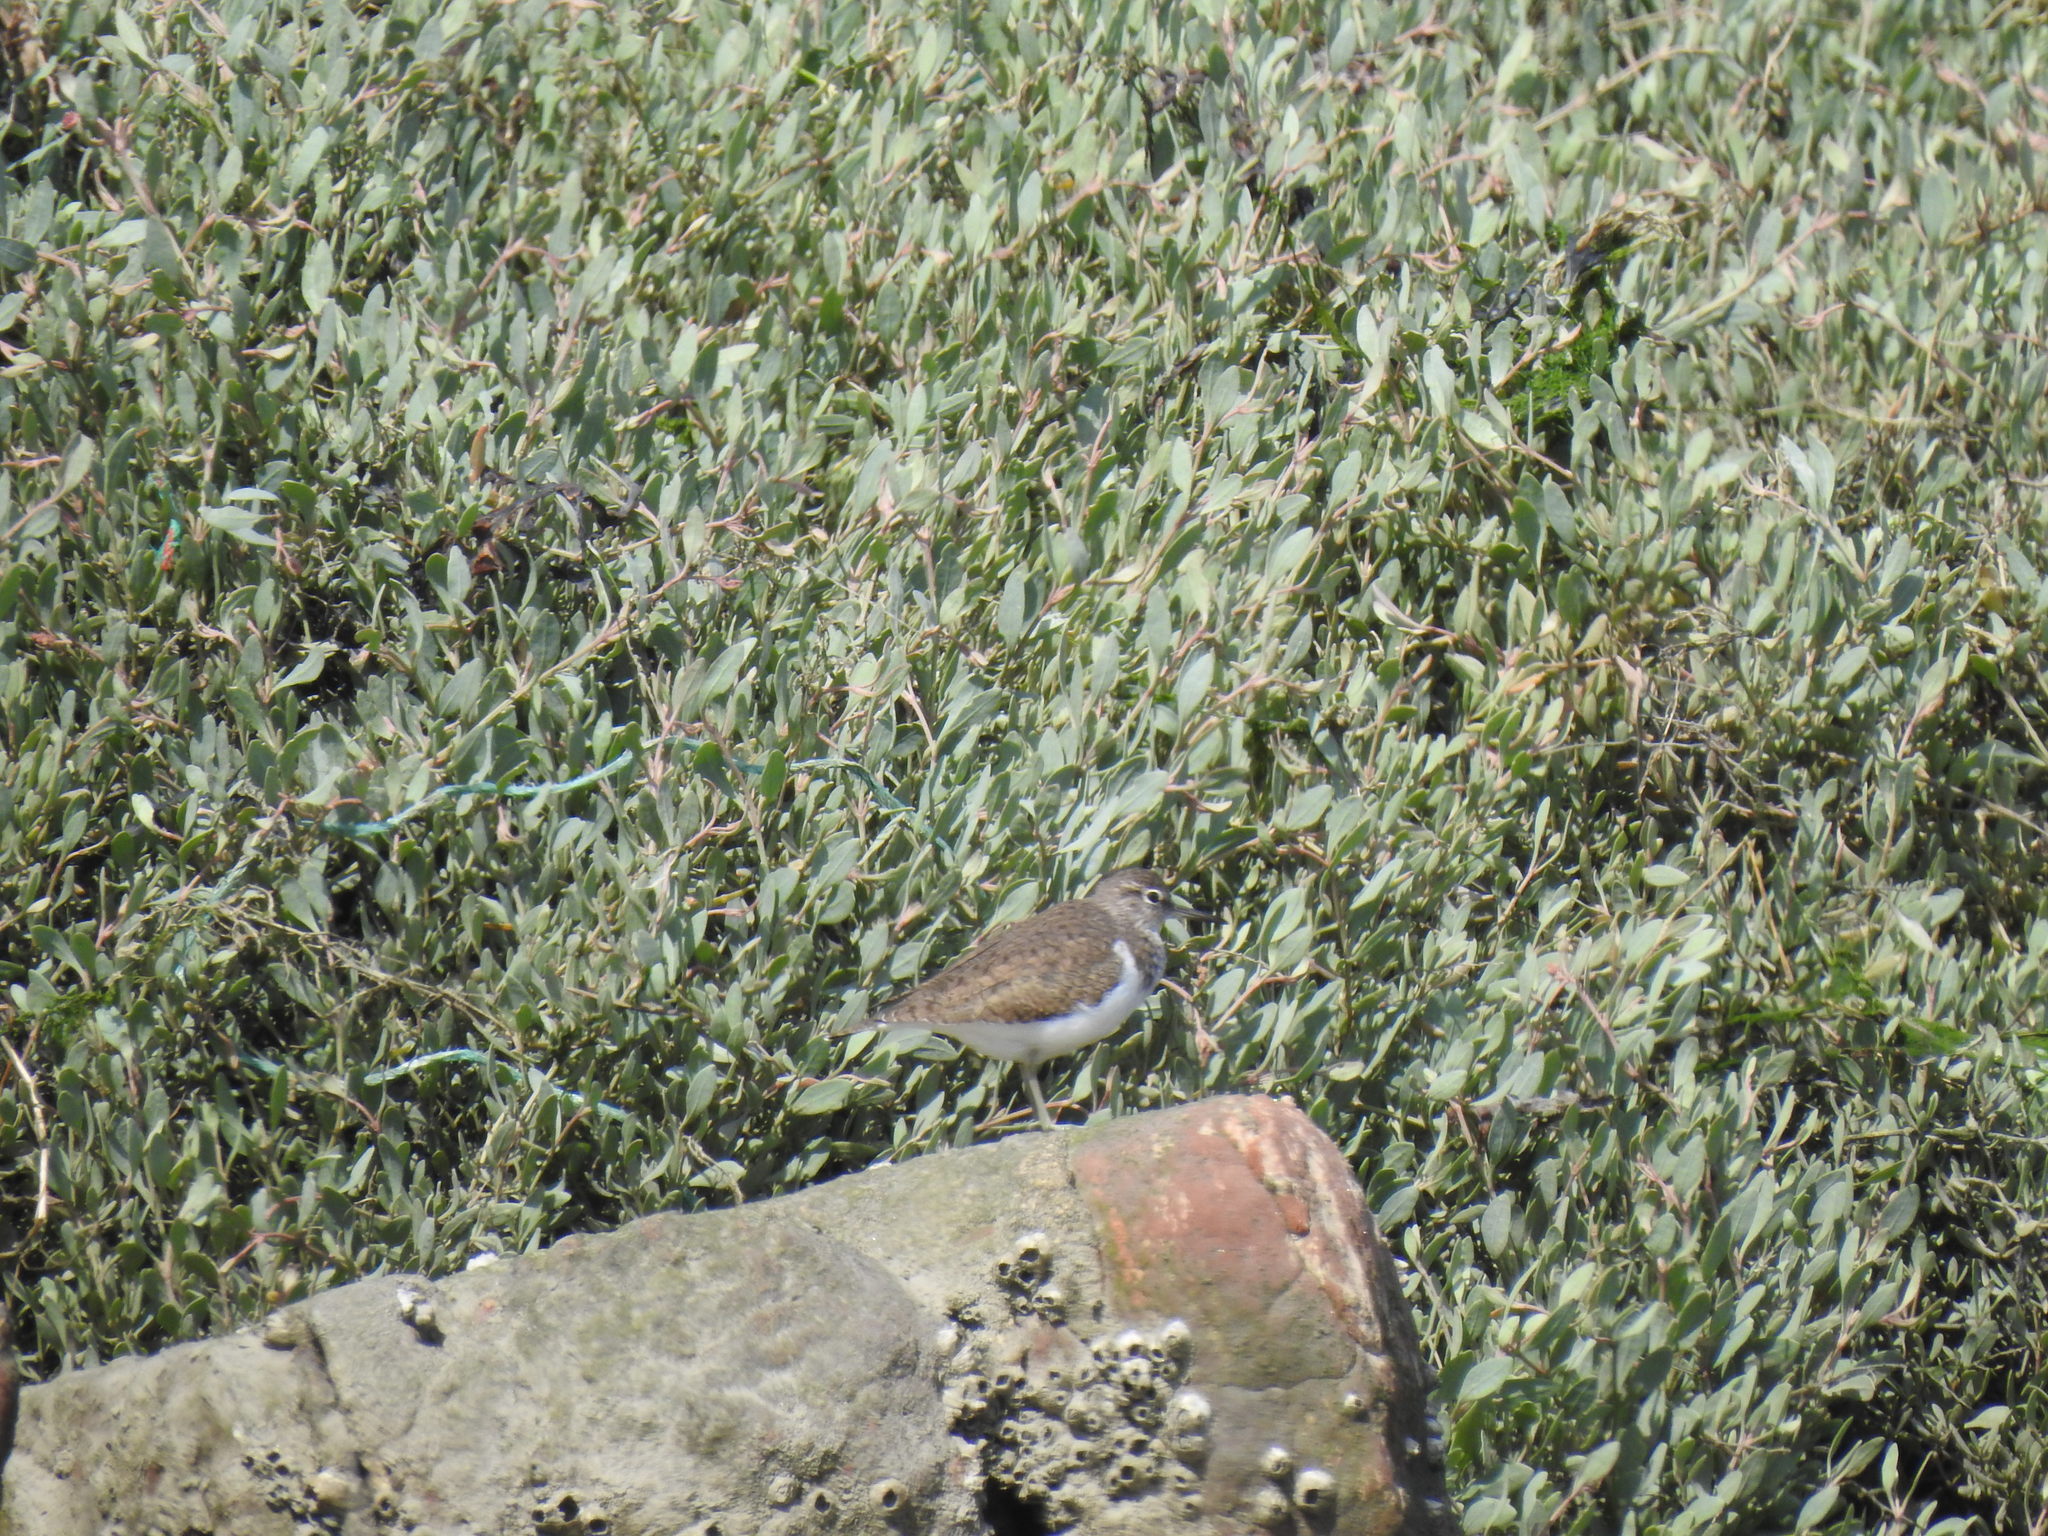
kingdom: Animalia
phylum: Chordata
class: Aves
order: Charadriiformes
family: Scolopacidae
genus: Actitis
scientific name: Actitis hypoleucos
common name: Common sandpiper
